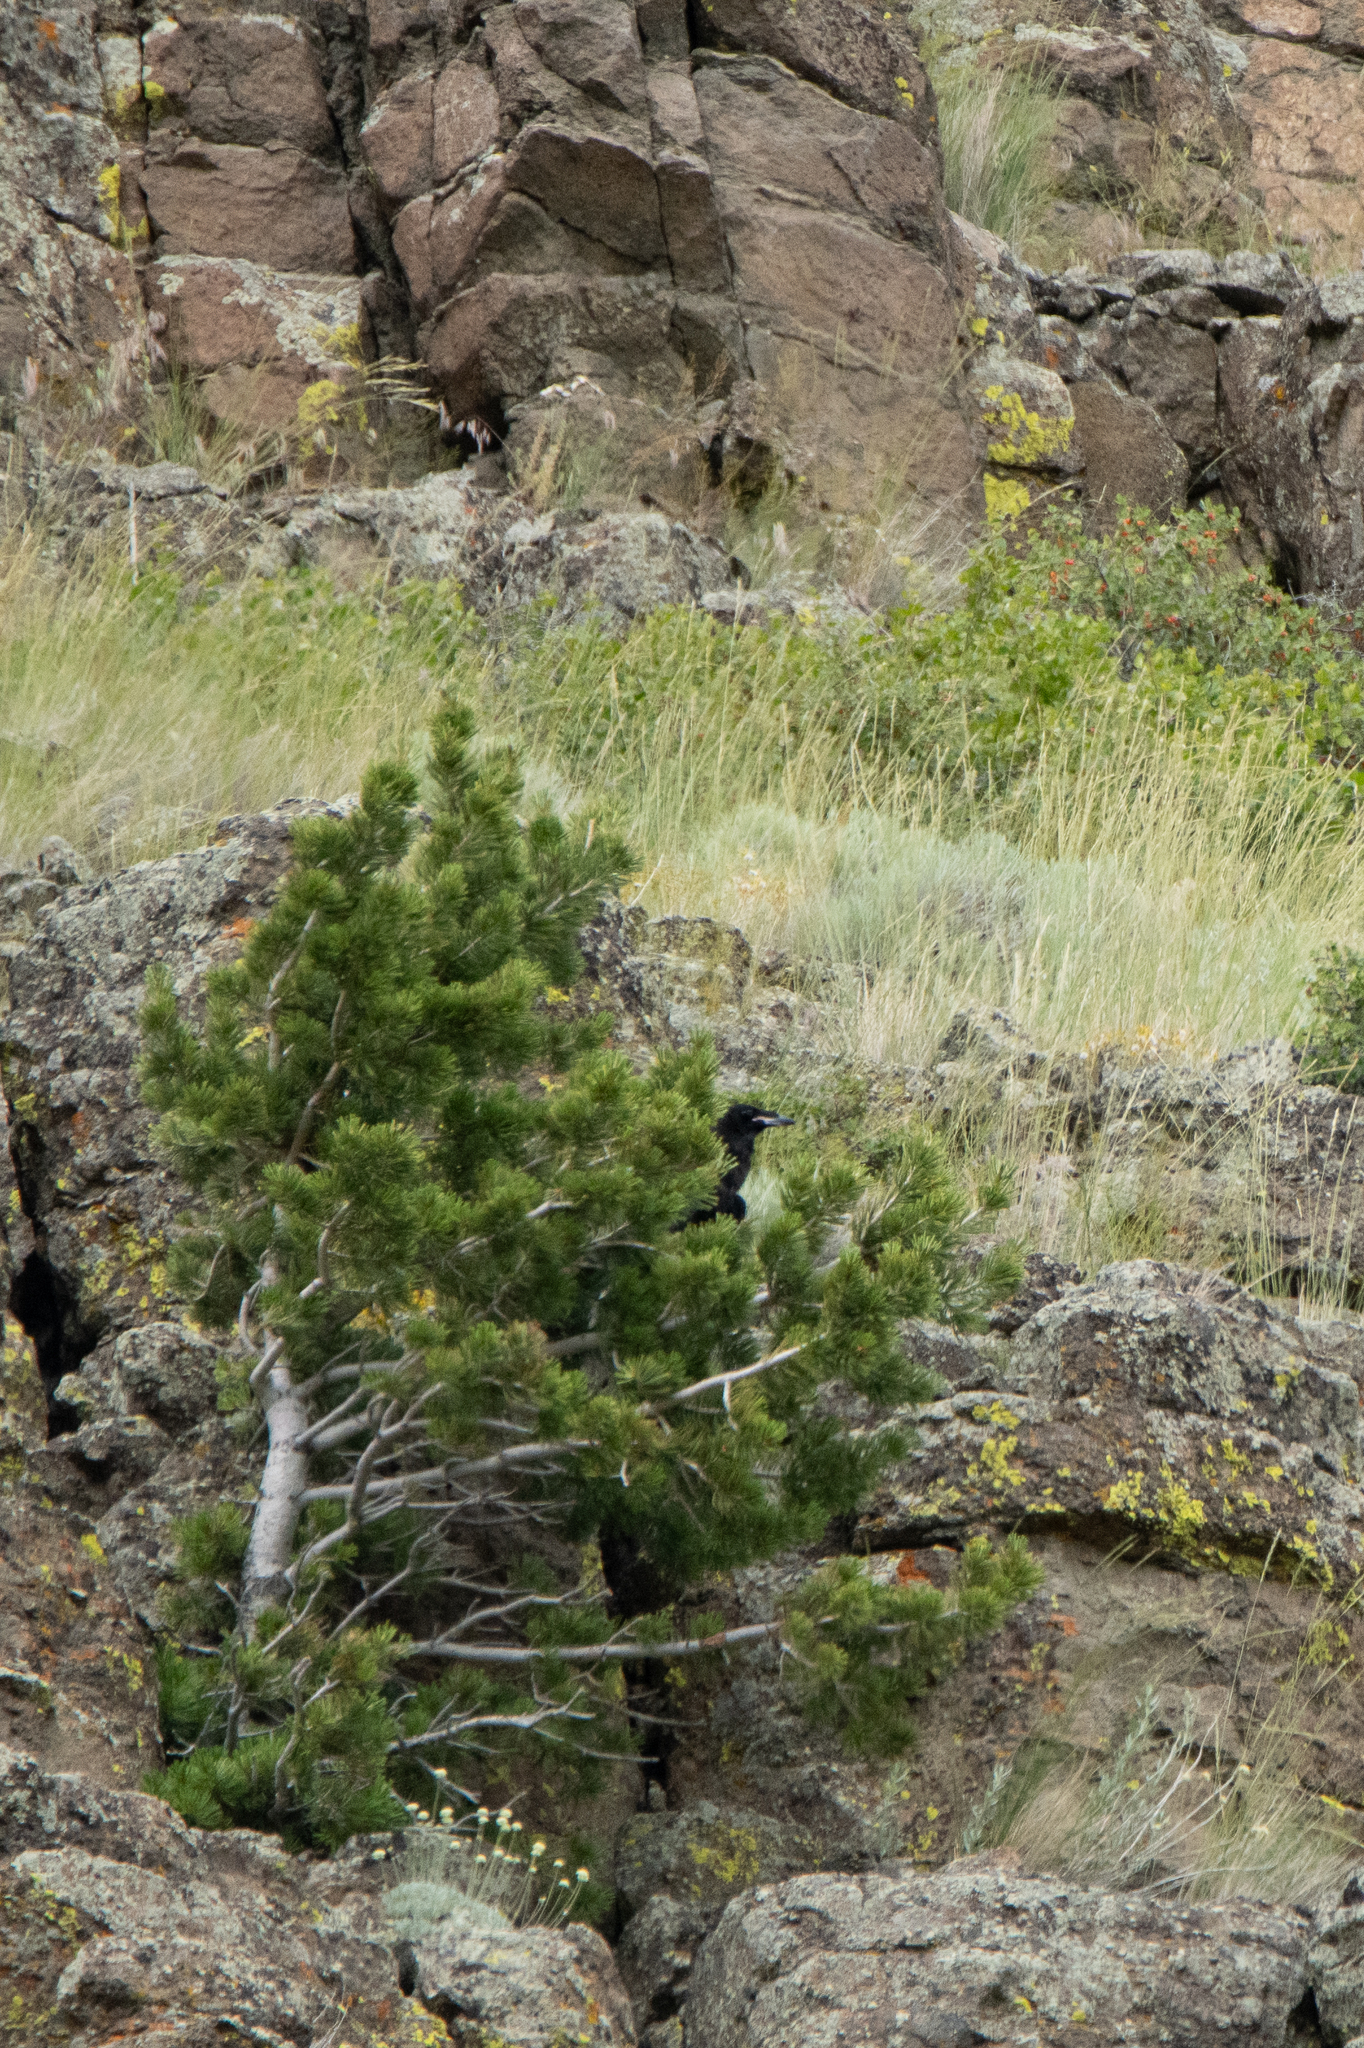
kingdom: Animalia
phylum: Chordata
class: Aves
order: Passeriformes
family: Corvidae
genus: Corvus
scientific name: Corvus corax
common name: Common raven
